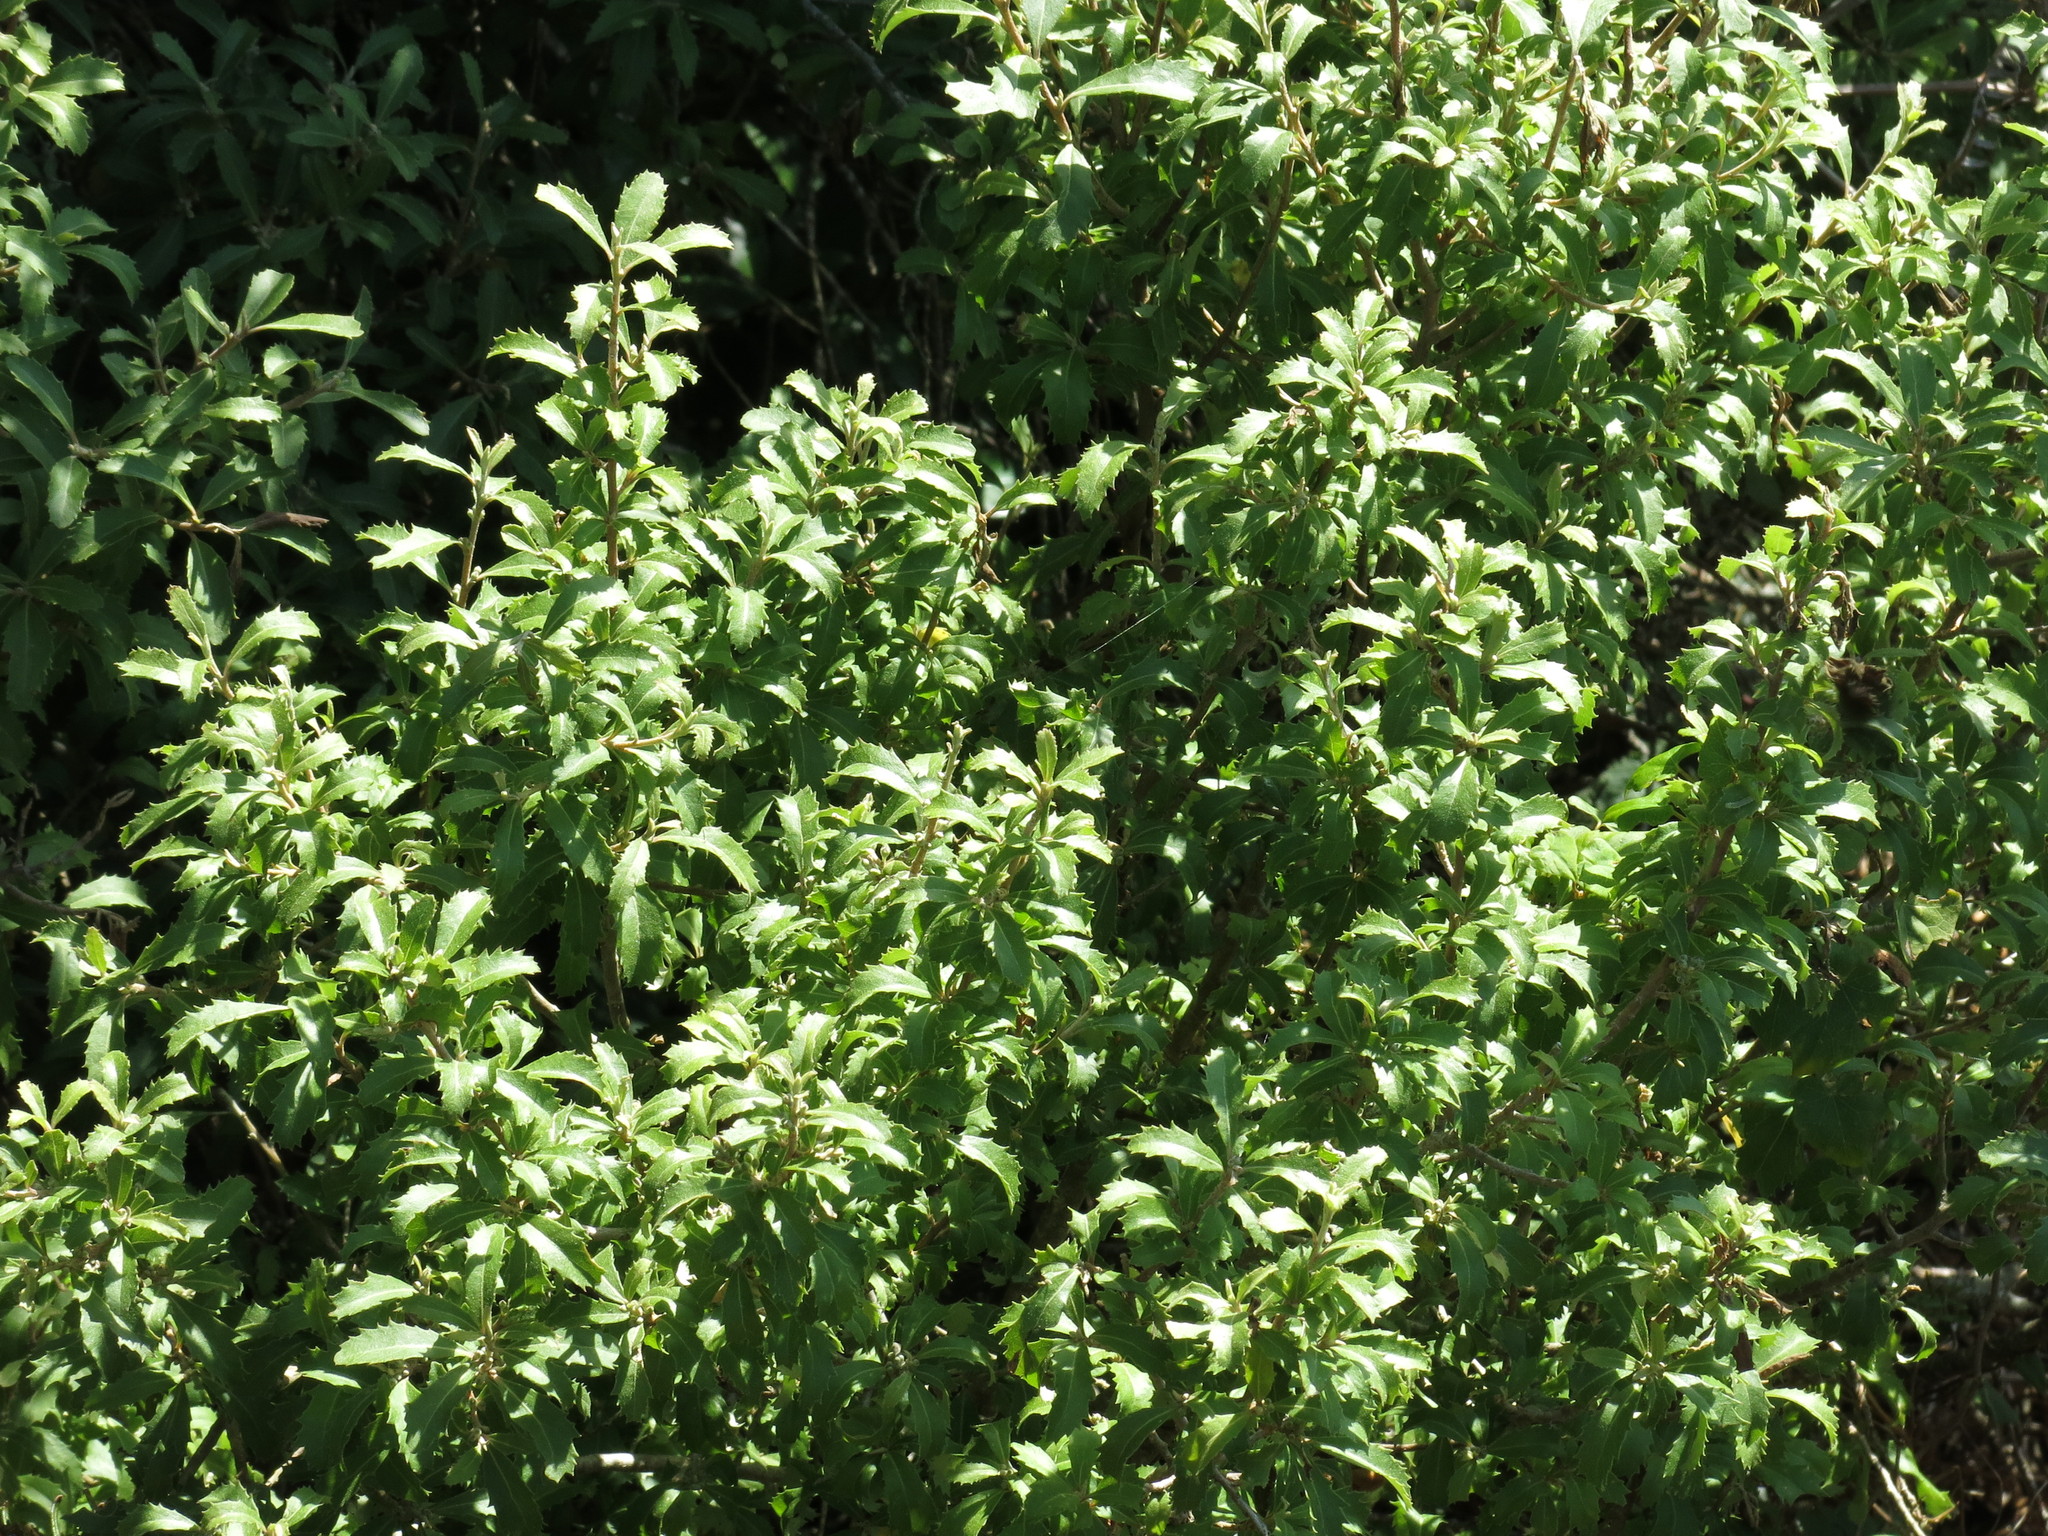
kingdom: Plantae
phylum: Tracheophyta
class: Magnoliopsida
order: Malvales
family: Malvaceae
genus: Hoheria
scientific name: Hoheria angustifolia
